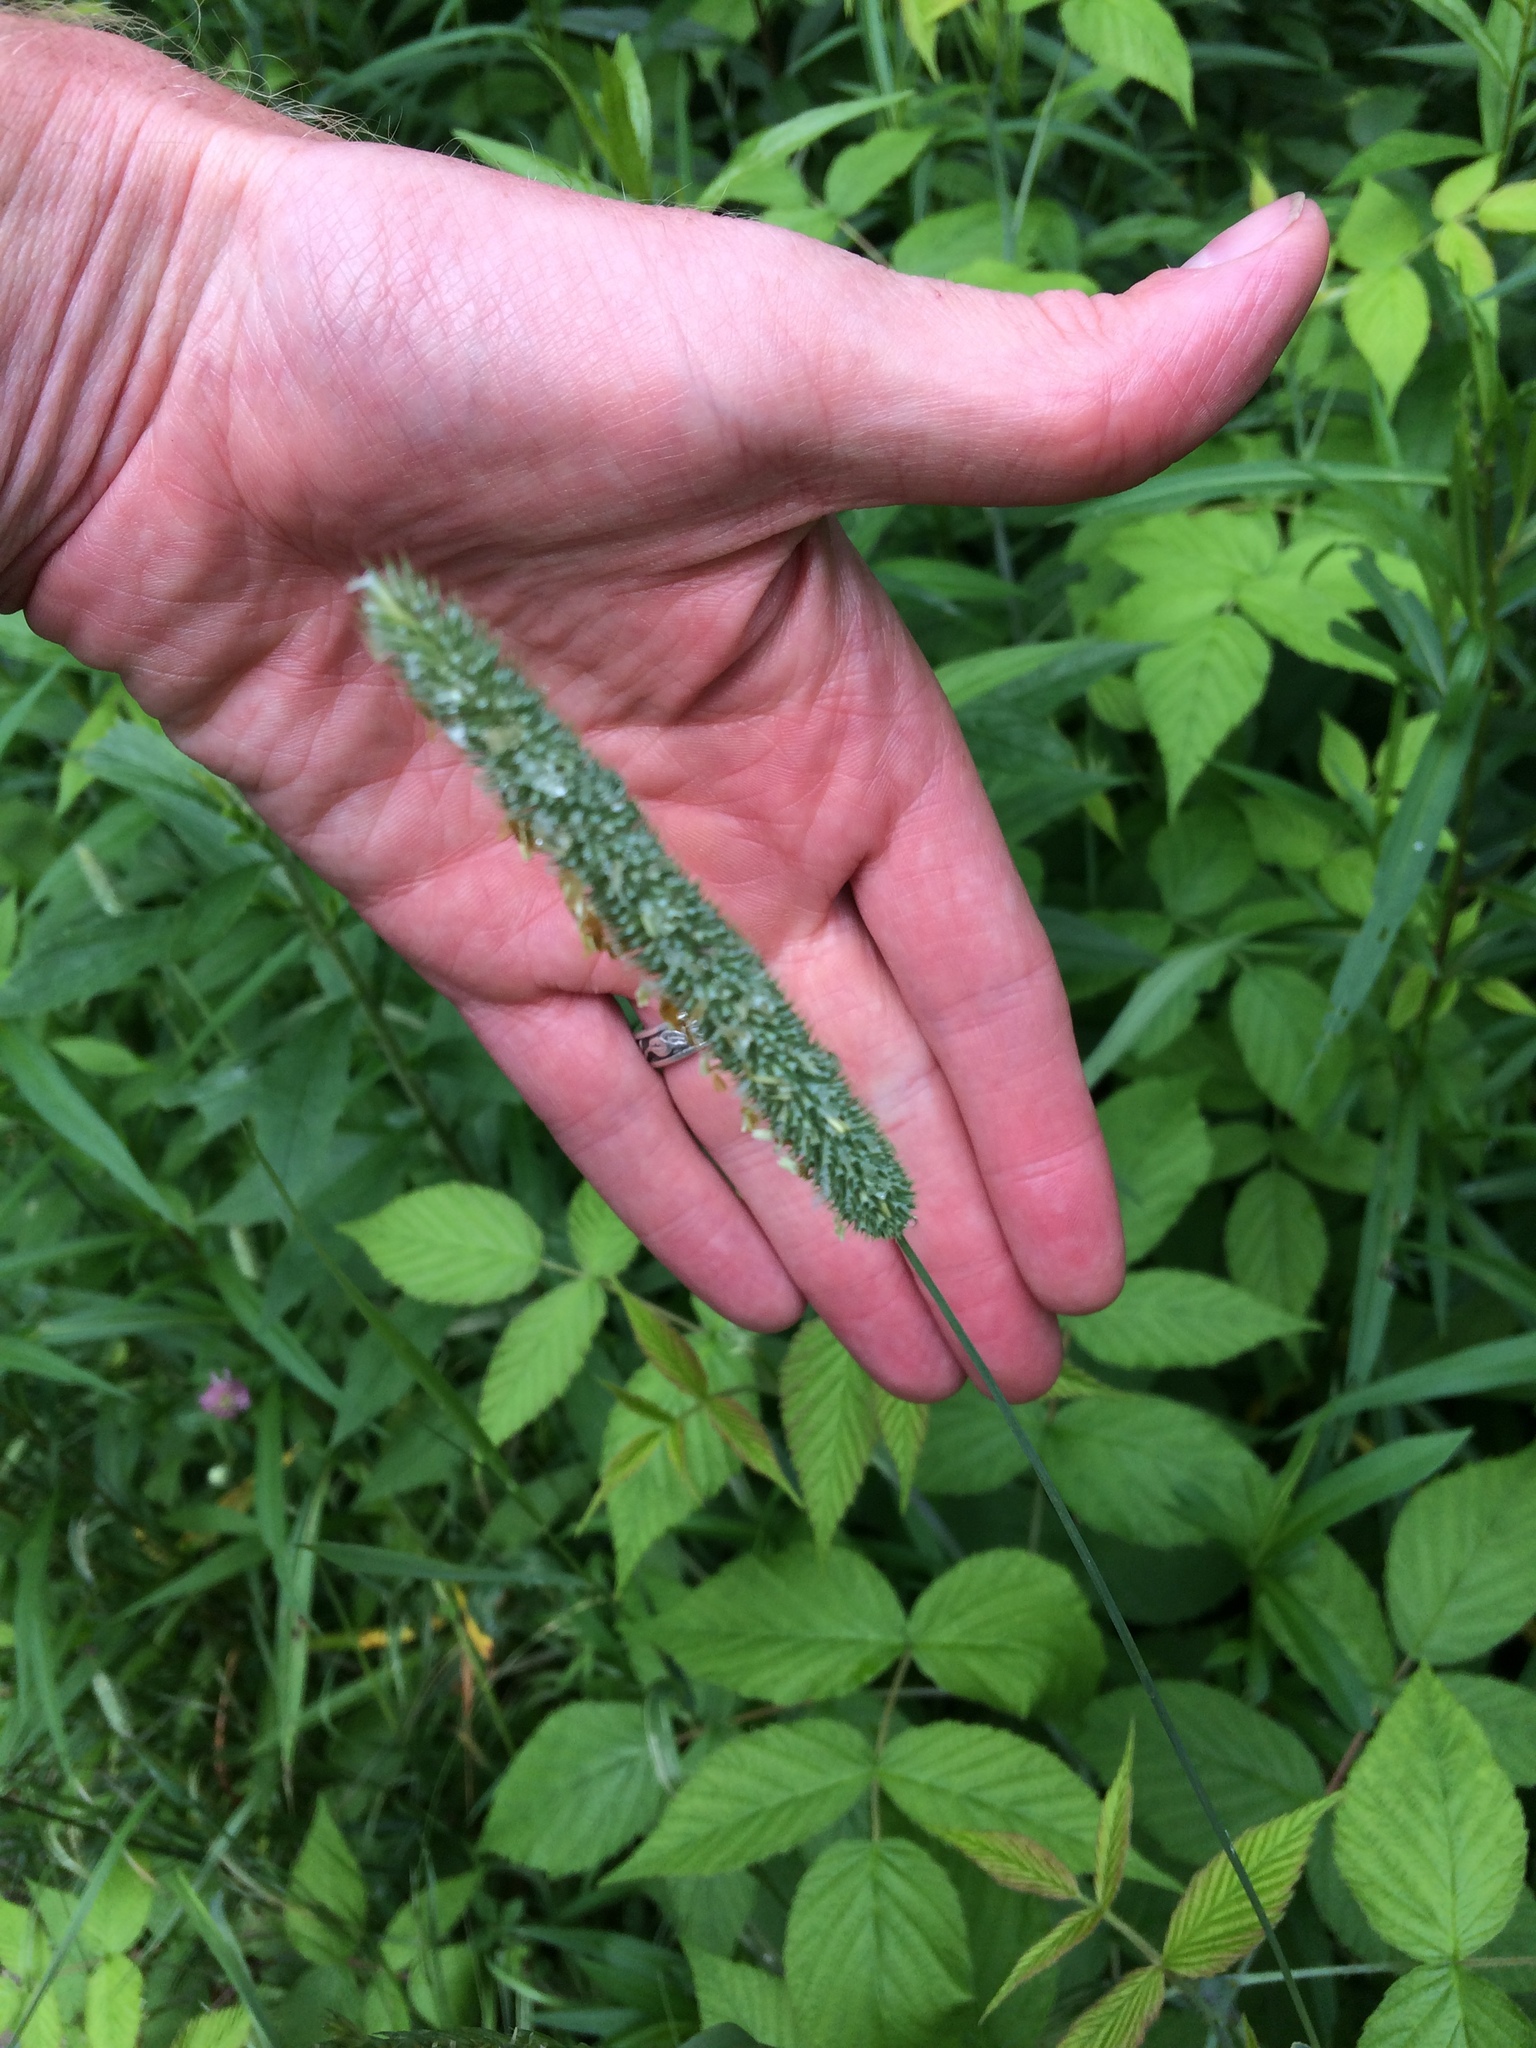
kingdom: Plantae
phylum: Tracheophyta
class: Liliopsida
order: Poales
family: Poaceae
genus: Phleum
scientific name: Phleum pratense
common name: Timothy grass
